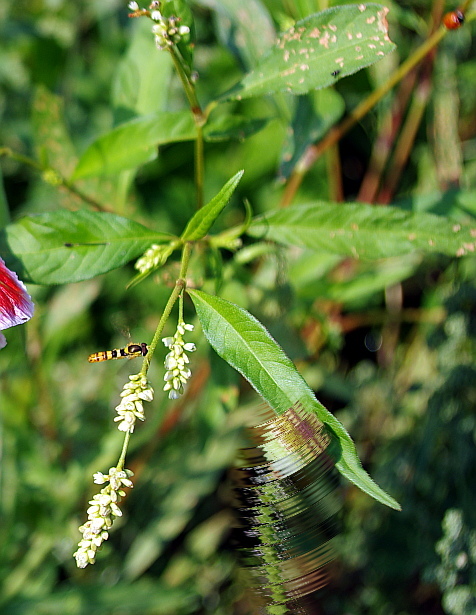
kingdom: Plantae
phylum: Tracheophyta
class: Magnoliopsida
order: Caryophyllales
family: Polygonaceae
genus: Persicaria
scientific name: Persicaria lapathifolia
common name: Curlytop knotweed
